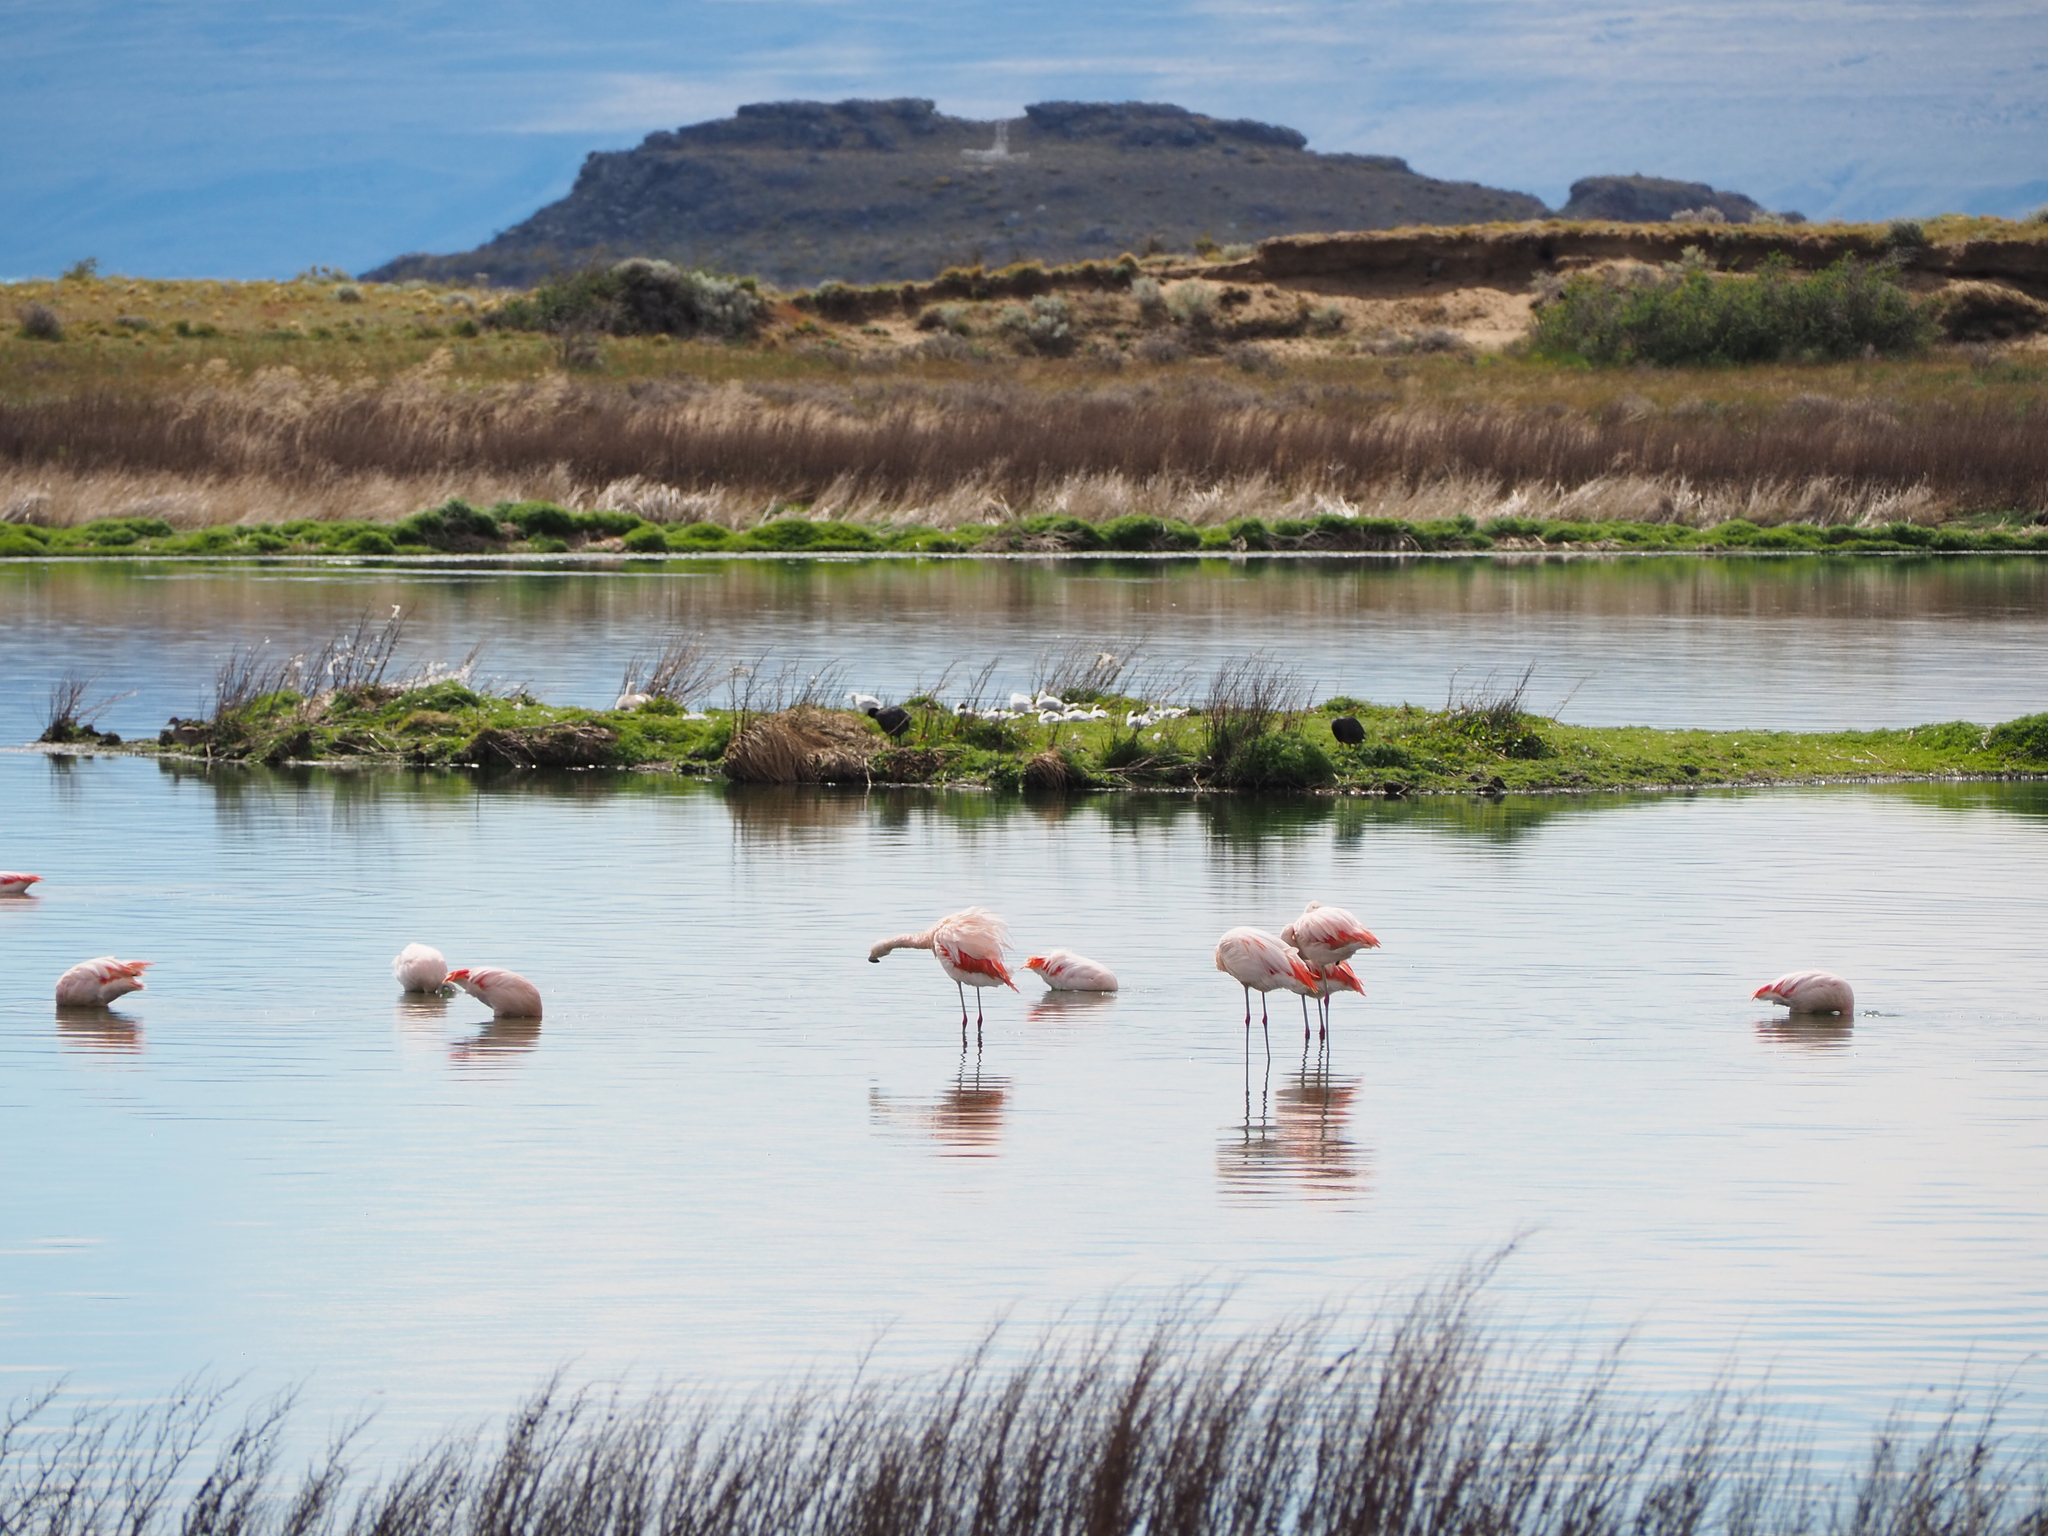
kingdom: Animalia
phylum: Chordata
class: Aves
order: Phoenicopteriformes
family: Phoenicopteridae
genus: Phoenicopterus
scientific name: Phoenicopterus chilensis
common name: Chilean flamingo
